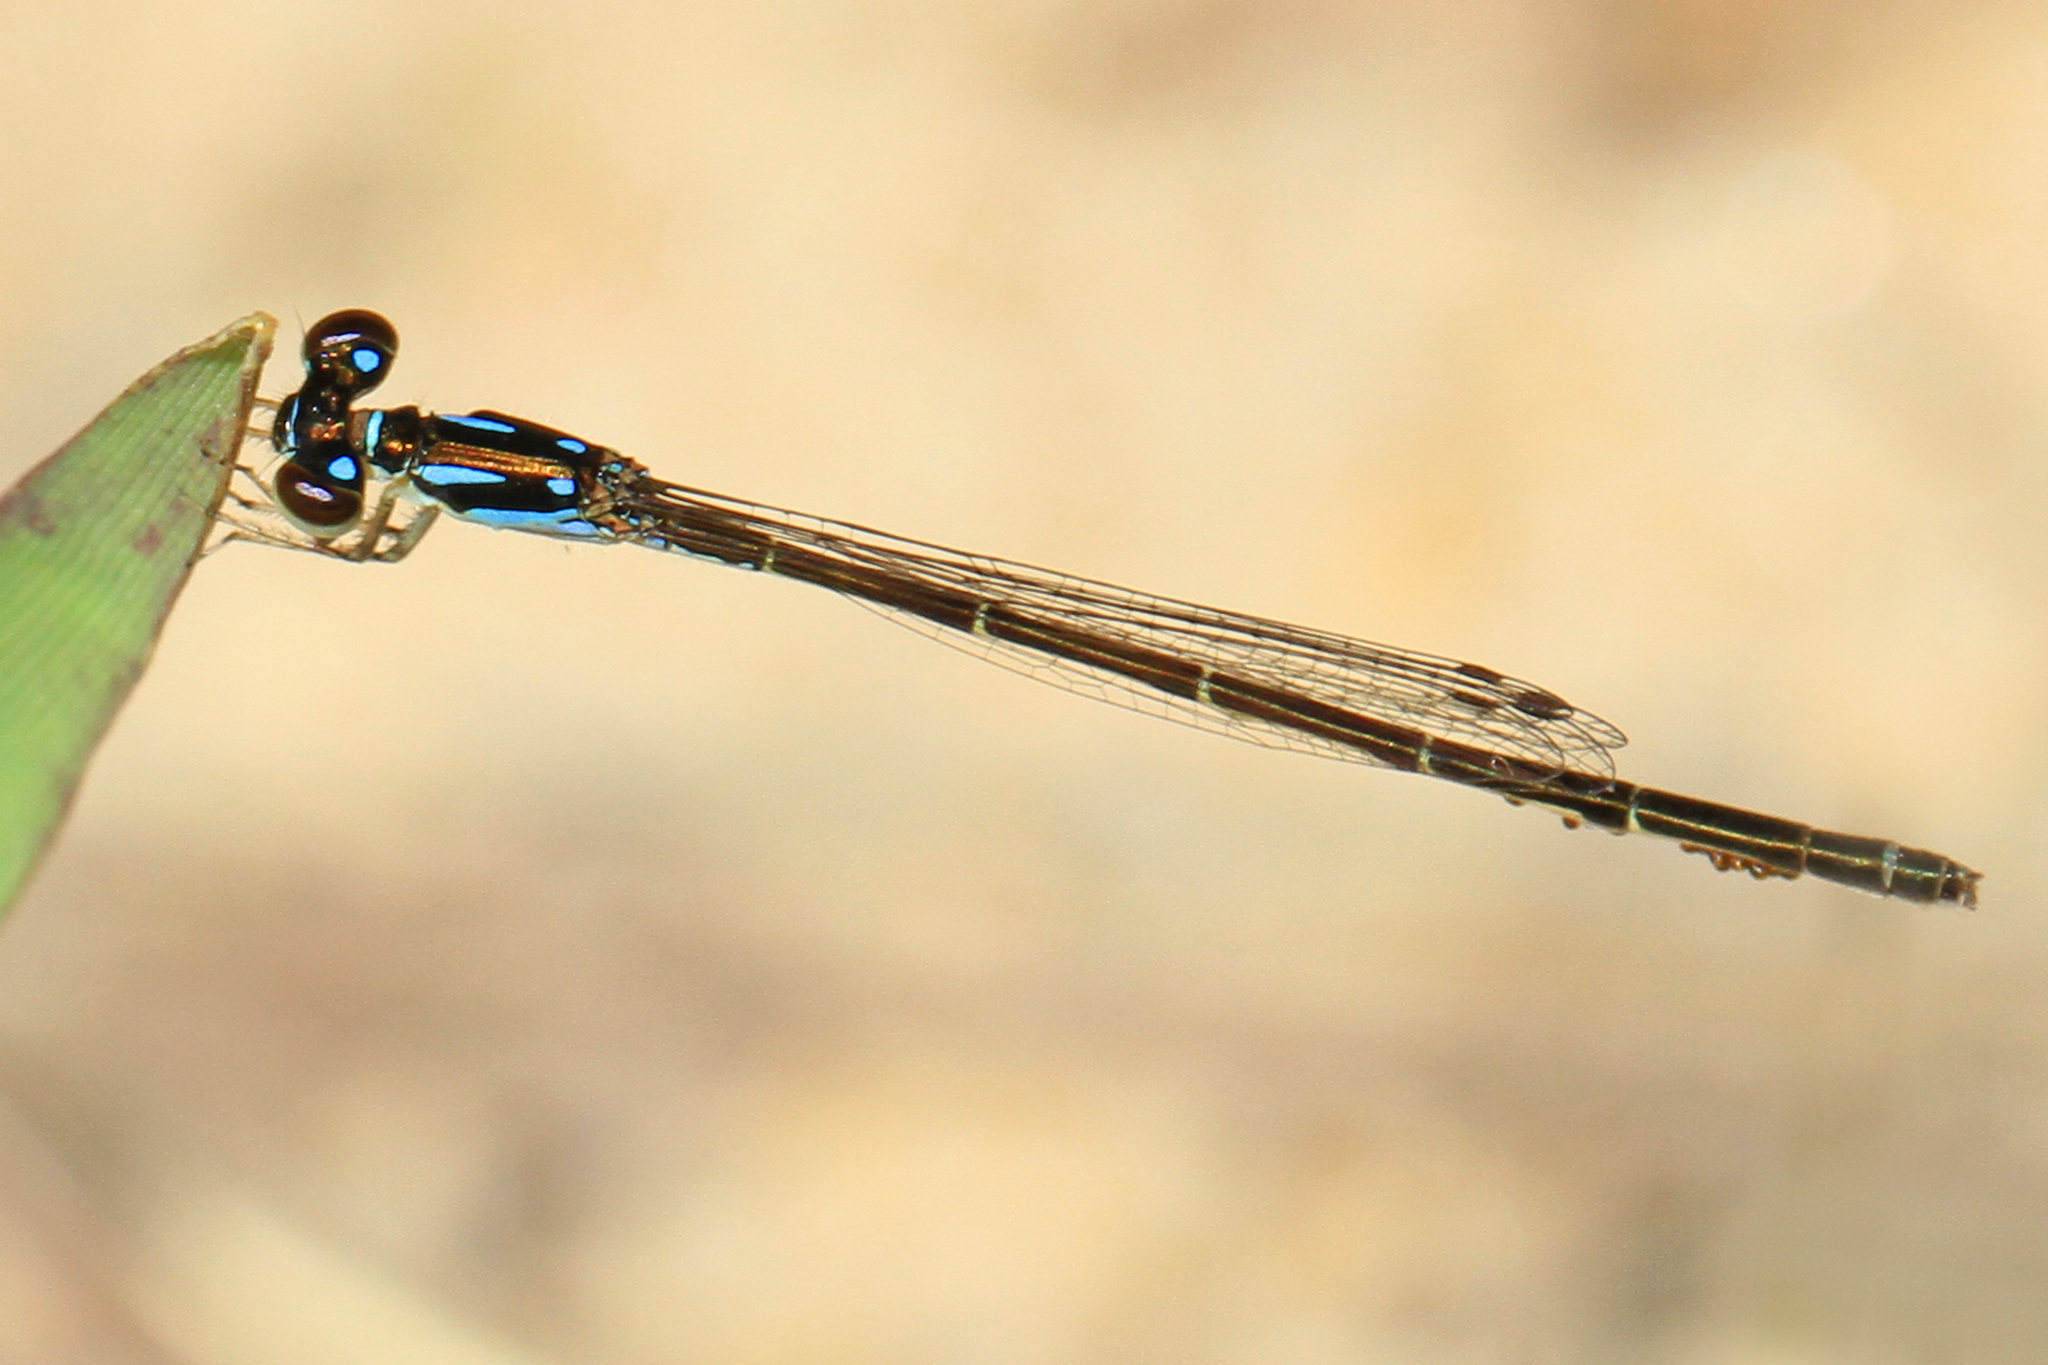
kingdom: Animalia
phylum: Arthropoda
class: Insecta
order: Odonata
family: Coenagrionidae
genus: Ischnura
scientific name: Ischnura posita
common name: Fragile forktail
